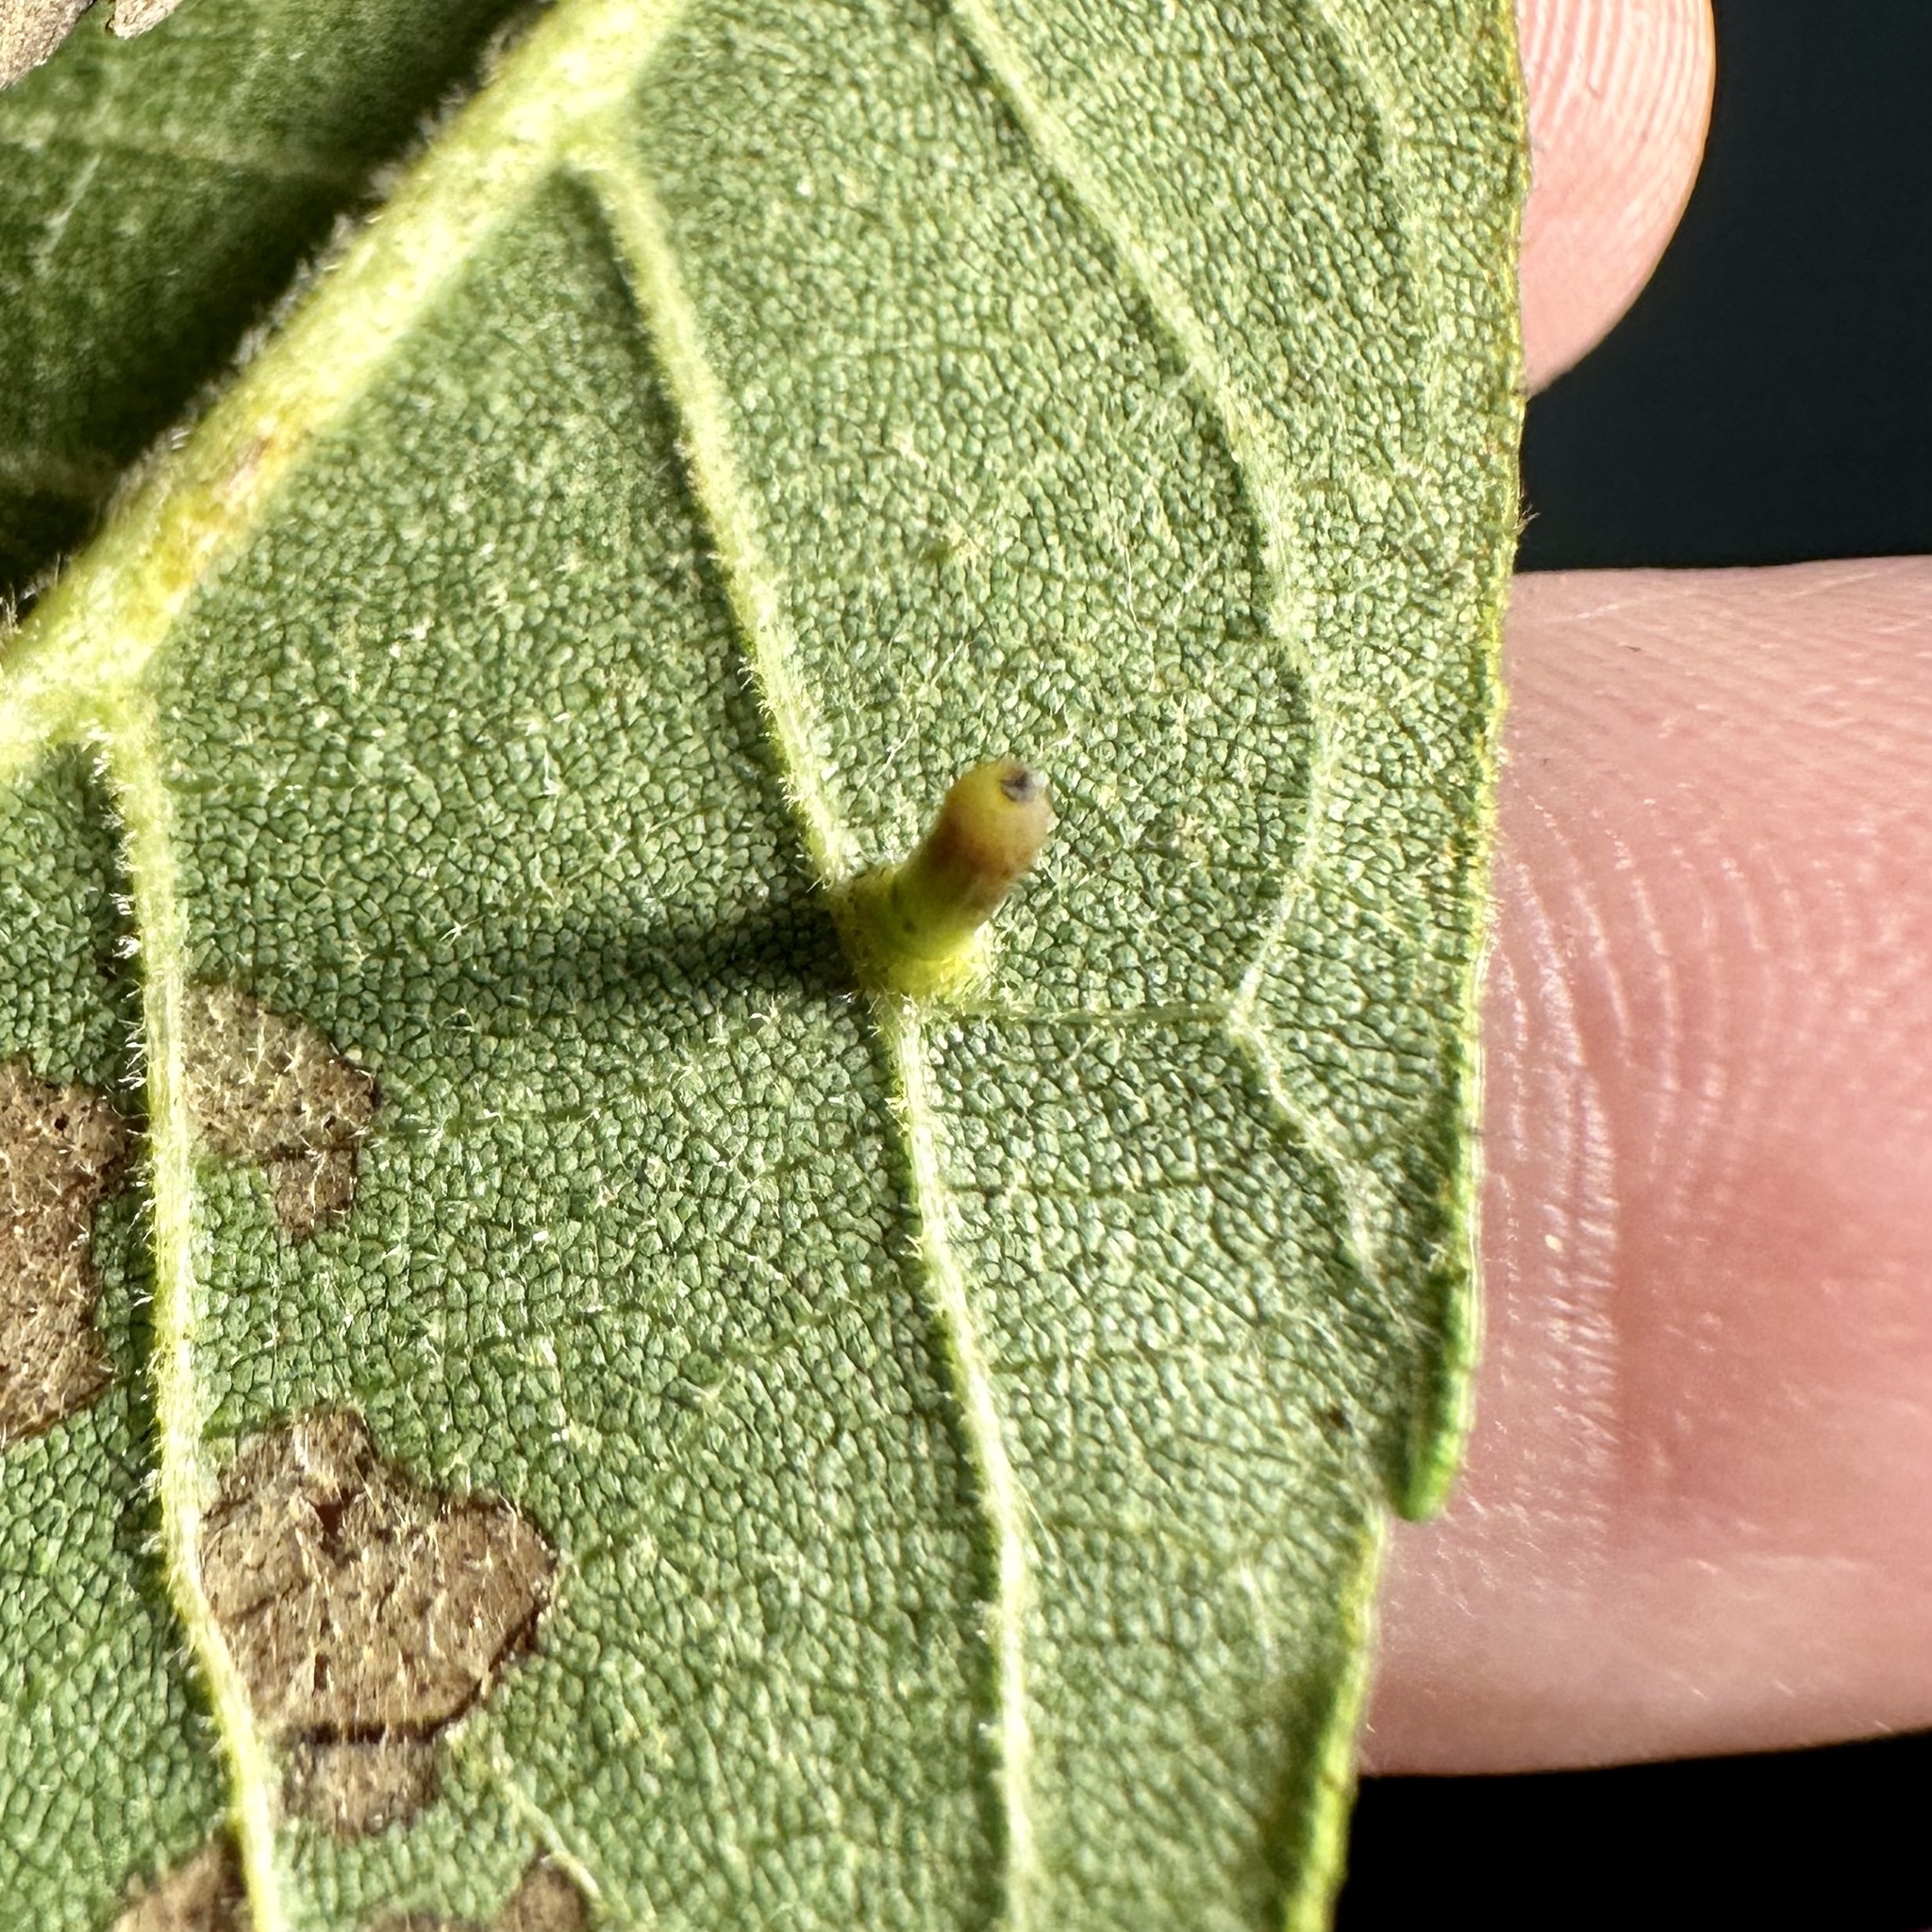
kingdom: Animalia
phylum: Arthropoda
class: Insecta
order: Diptera
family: Cecidomyiidae
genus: Caryomyia
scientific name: Caryomyia tubicola
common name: Hickory bullet gall midge
